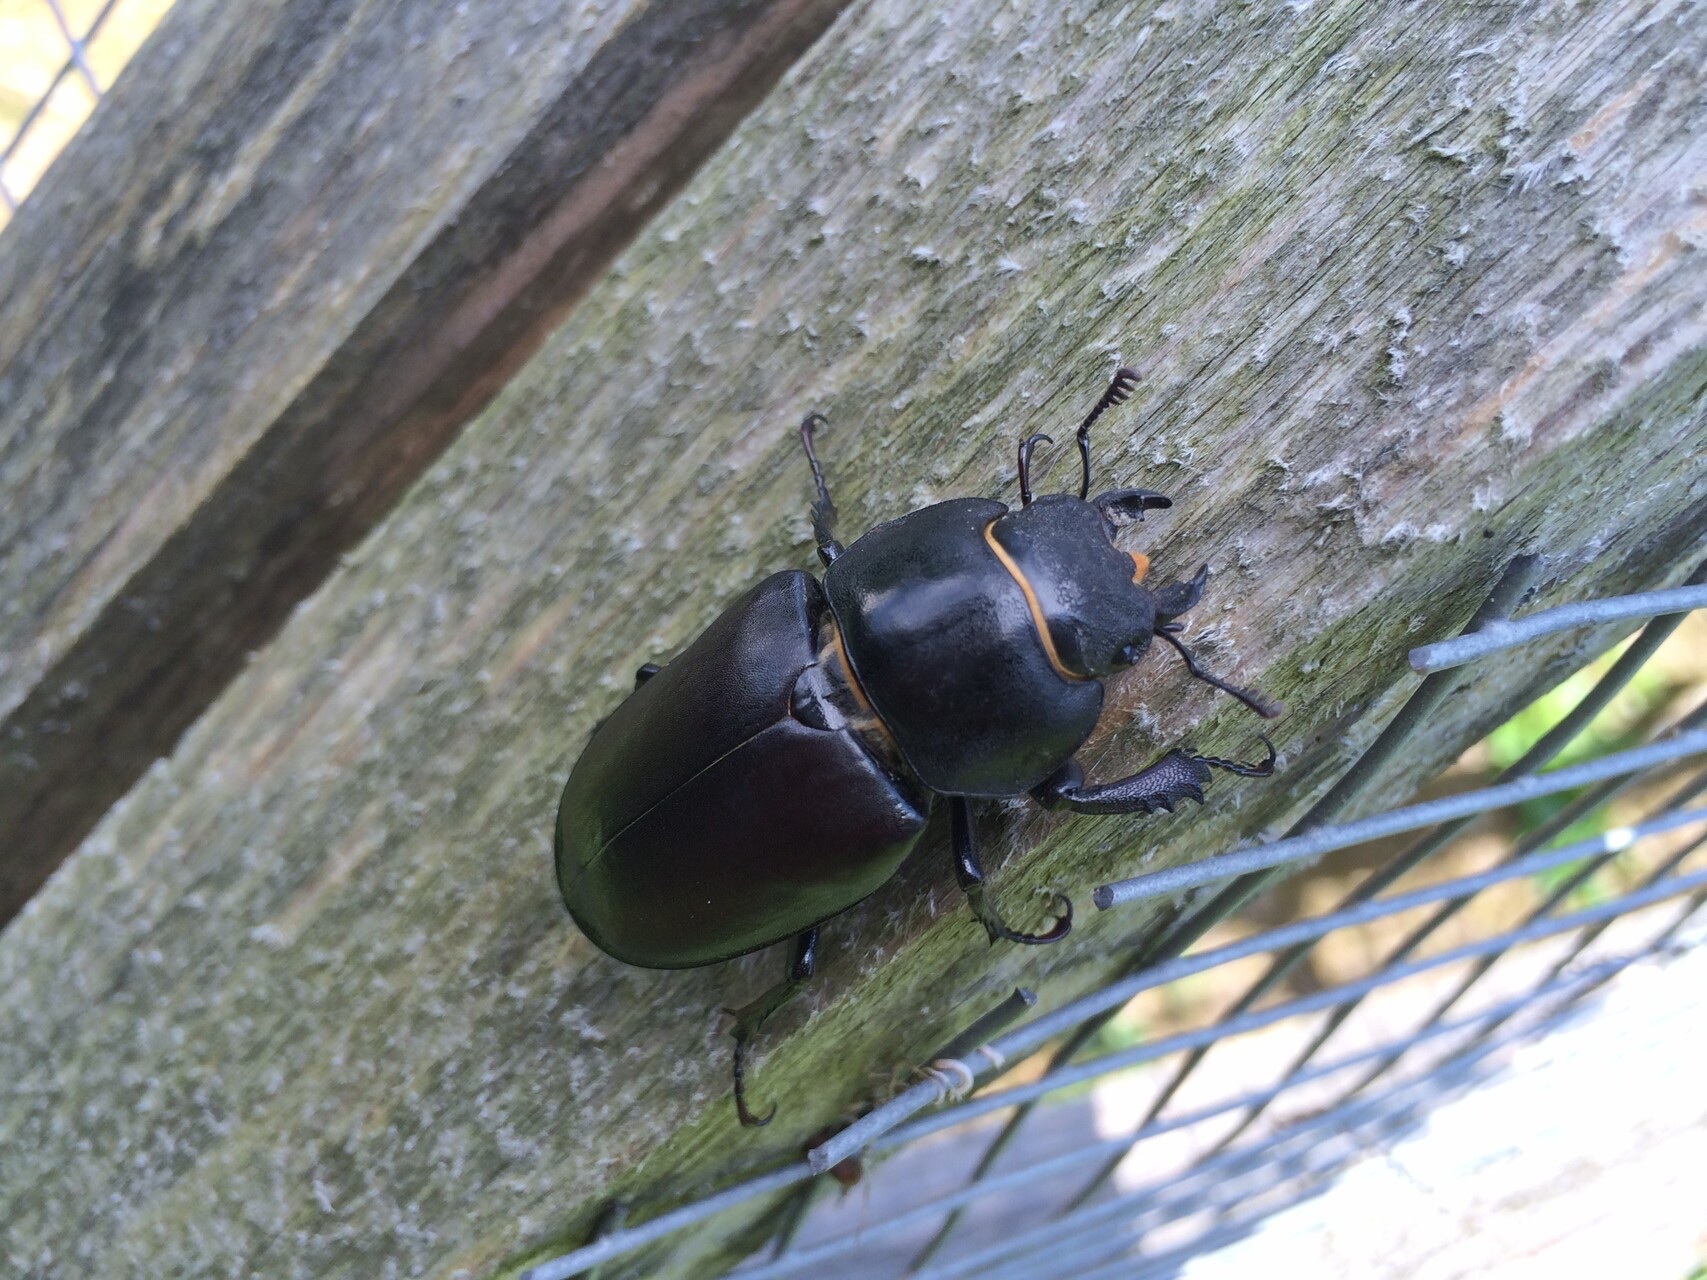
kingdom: Animalia
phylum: Arthropoda
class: Insecta
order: Coleoptera
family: Lucanidae
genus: Lucanus
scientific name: Lucanus cervus
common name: Stag beetle
